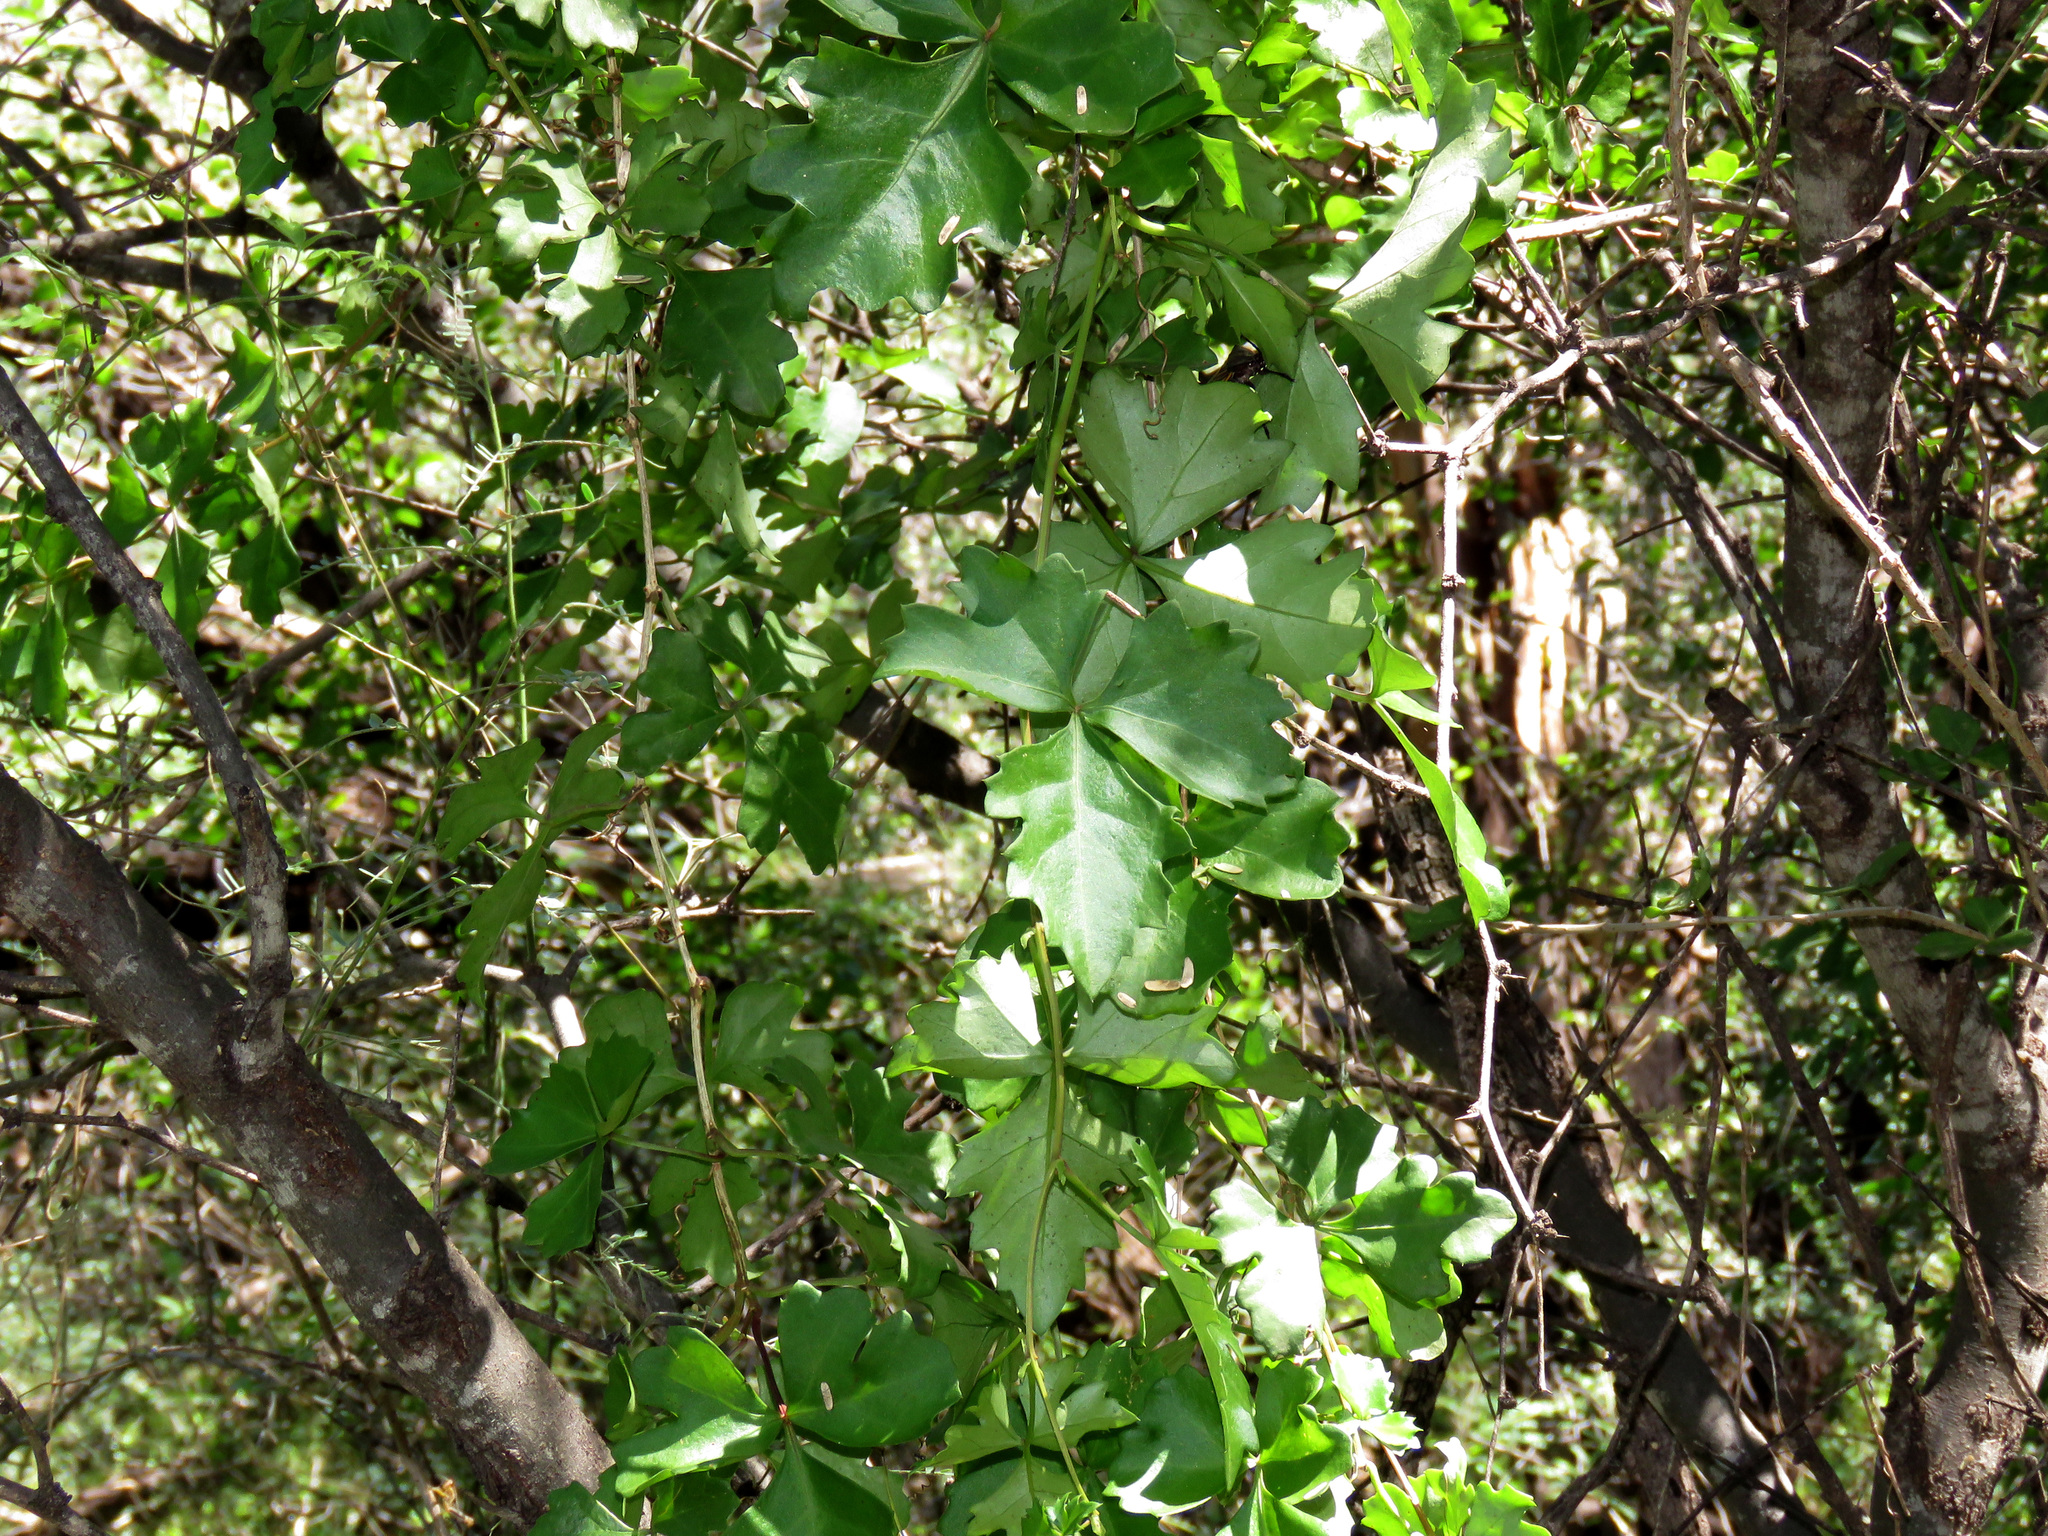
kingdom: Plantae
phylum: Tracheophyta
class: Magnoliopsida
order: Vitales
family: Vitaceae
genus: Cissus
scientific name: Cissus trifoliata
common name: Vine-sorrel
